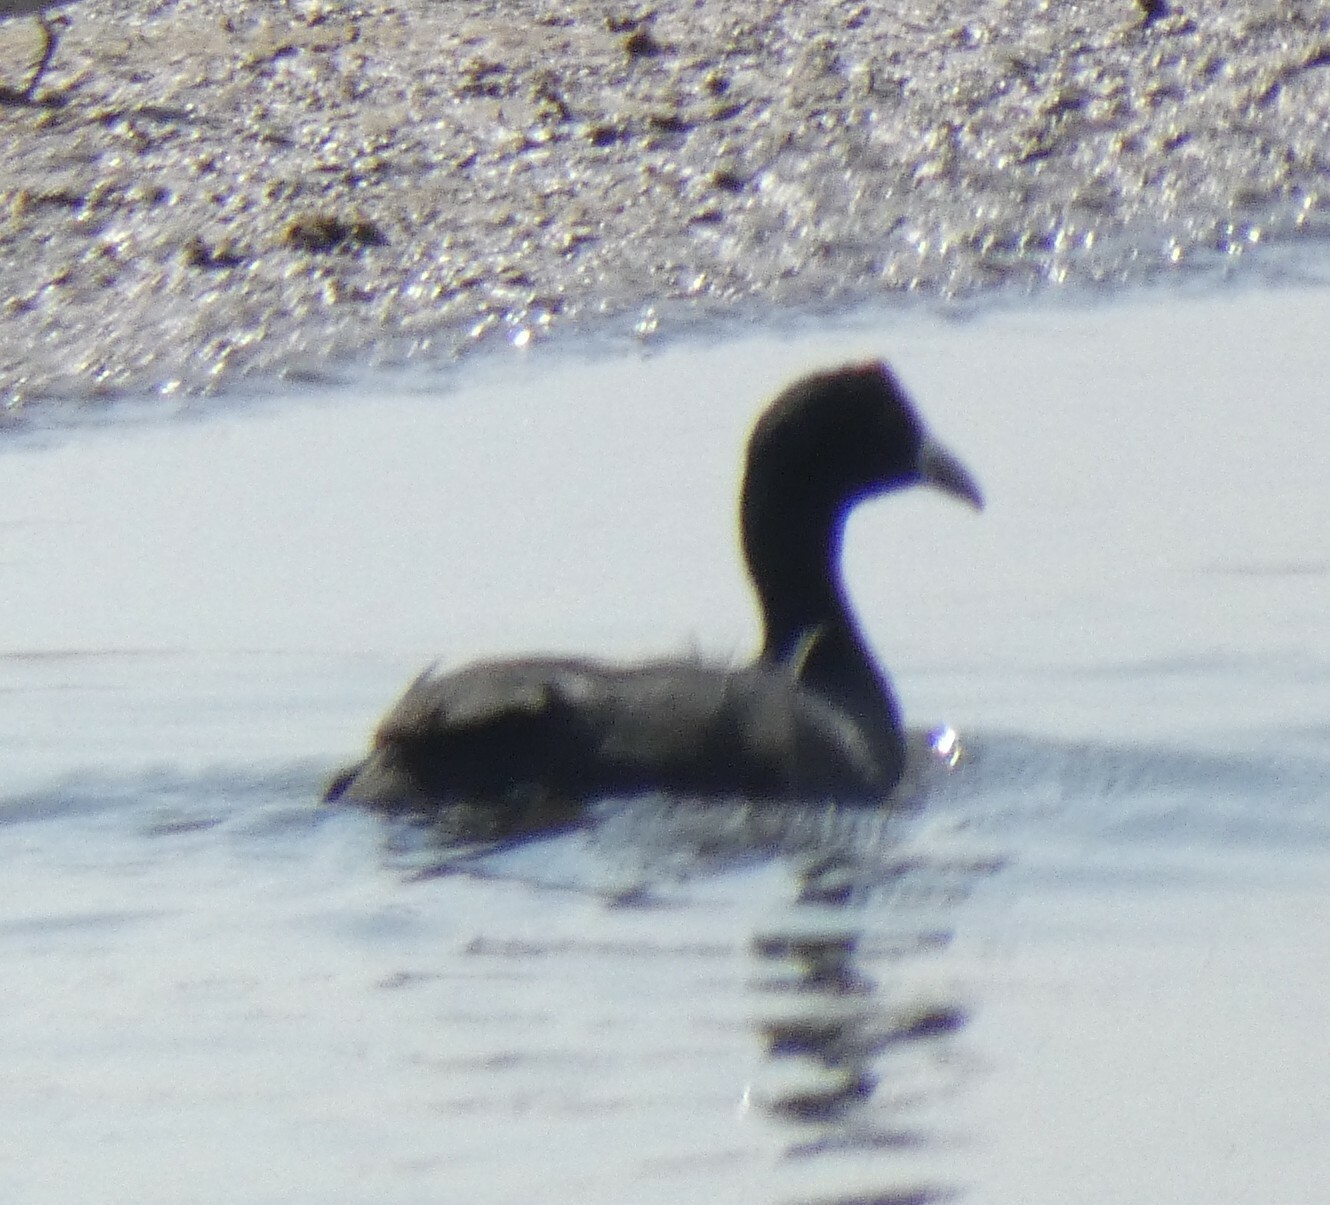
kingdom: Animalia
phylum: Chordata
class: Aves
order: Gruiformes
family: Rallidae
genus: Fulica
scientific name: Fulica cristata
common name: Red-knobbed coot
